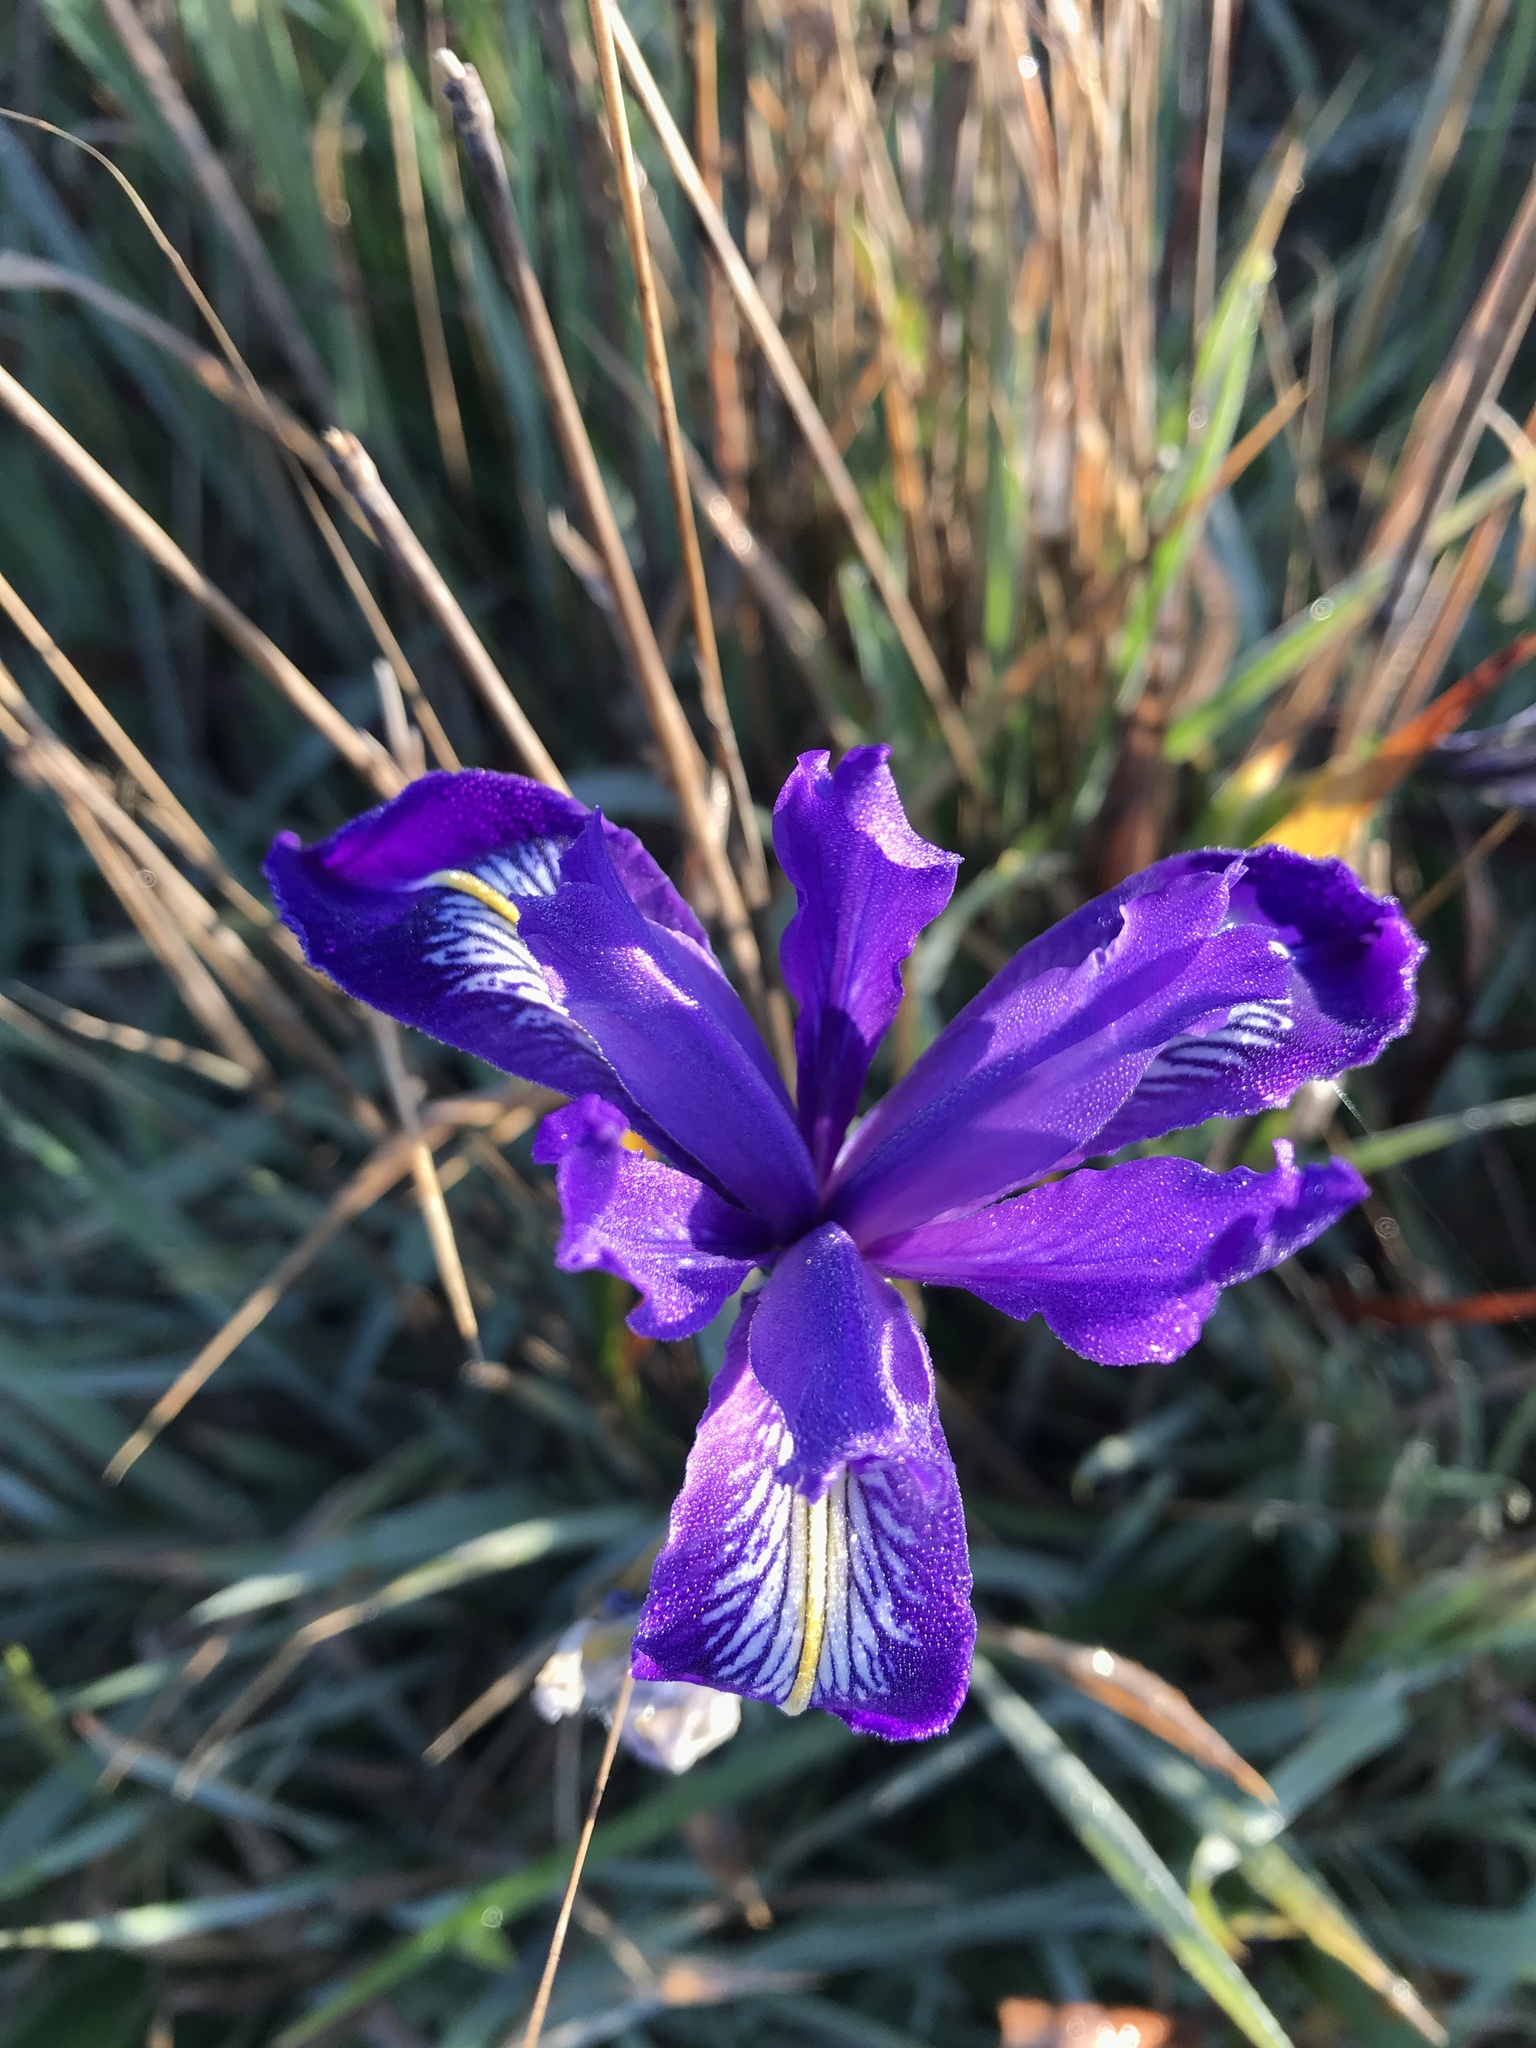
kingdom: Plantae
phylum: Tracheophyta
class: Liliopsida
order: Asparagales
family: Iridaceae
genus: Iris
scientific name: Iris douglasiana
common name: Marin iris
